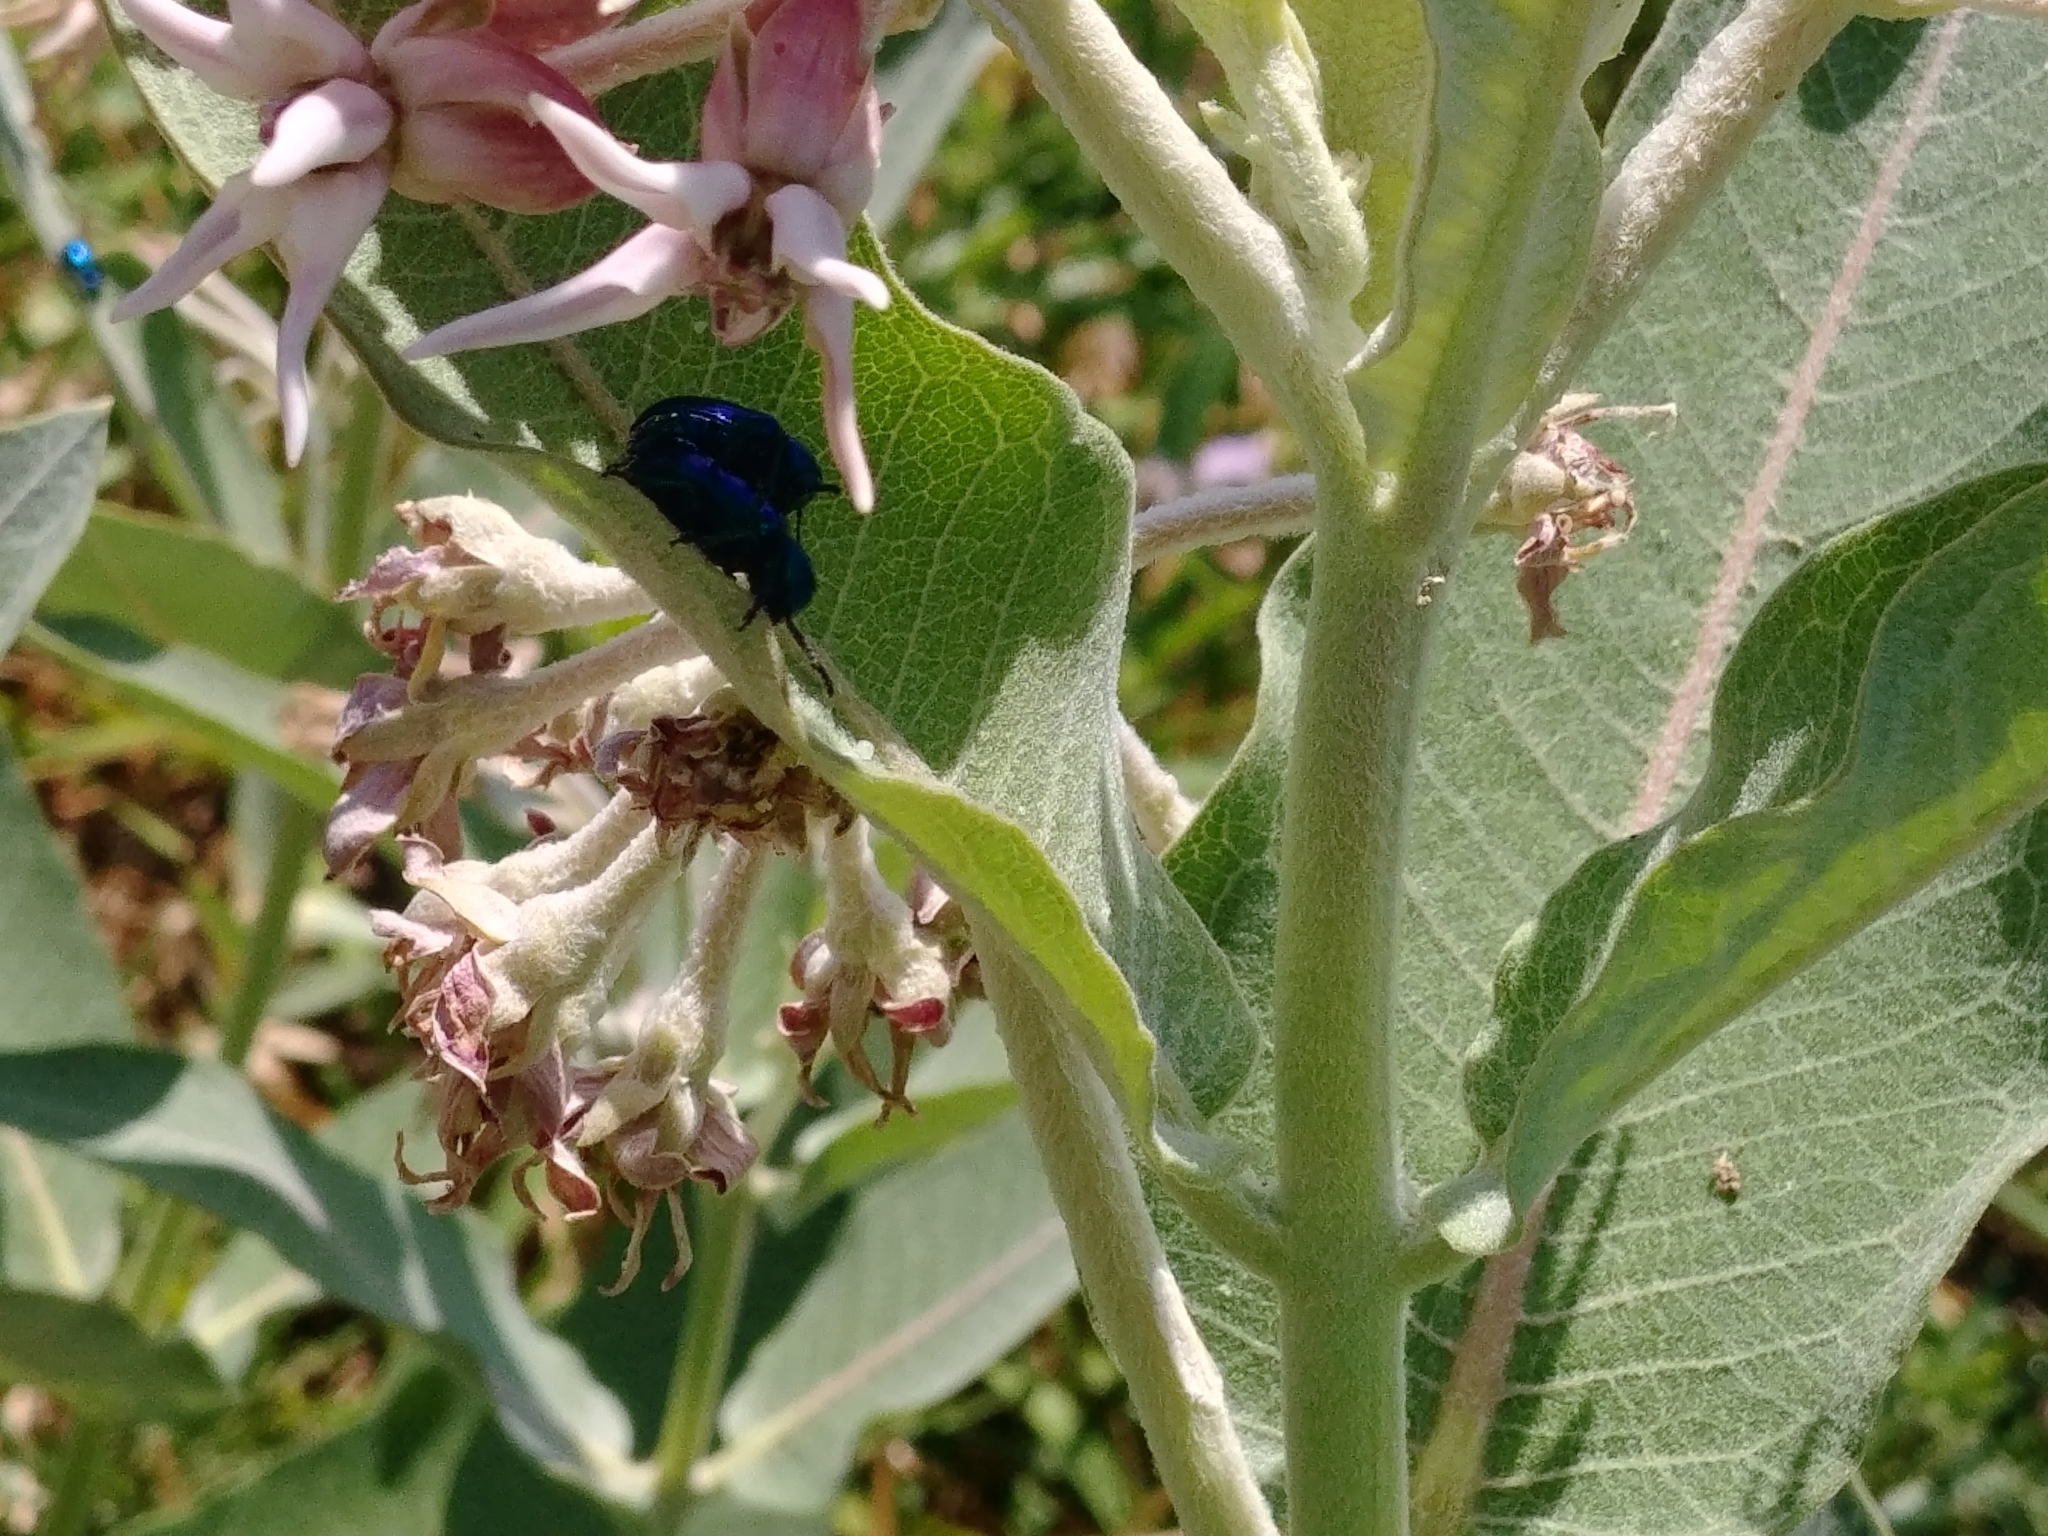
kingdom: Animalia
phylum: Arthropoda
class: Insecta
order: Coleoptera
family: Chrysomelidae
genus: Chrysochus
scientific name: Chrysochus cobaltinus
